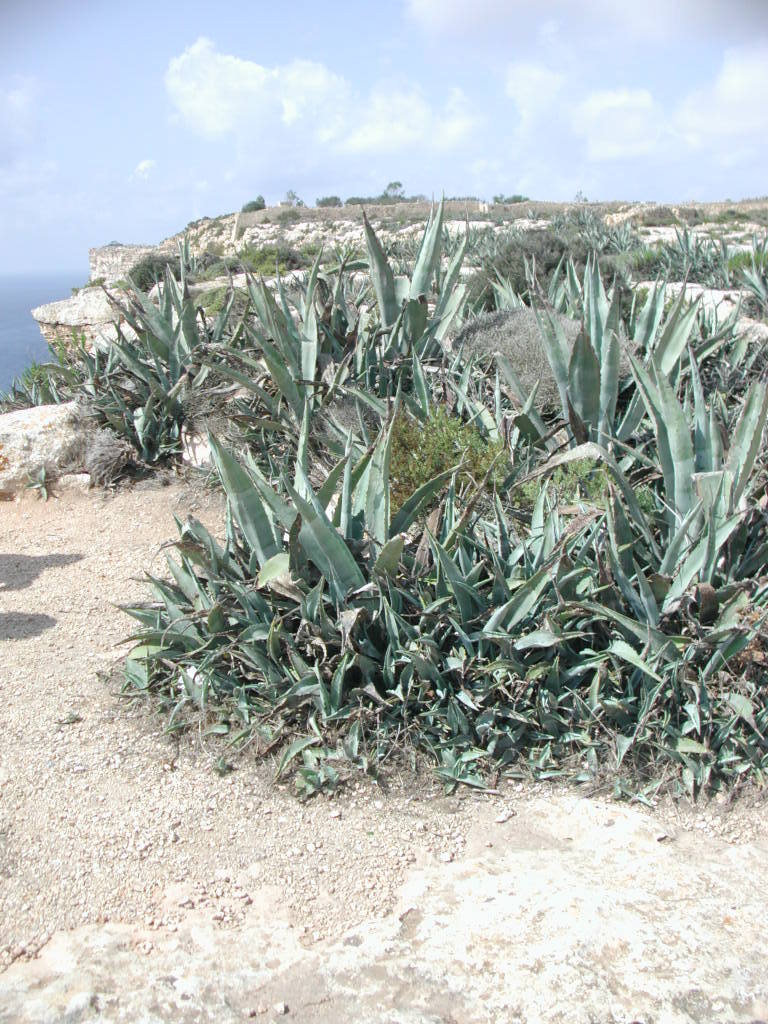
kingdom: Plantae
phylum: Tracheophyta
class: Liliopsida
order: Asparagales
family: Asparagaceae
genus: Agave
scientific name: Agave americana
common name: Centuryplant
